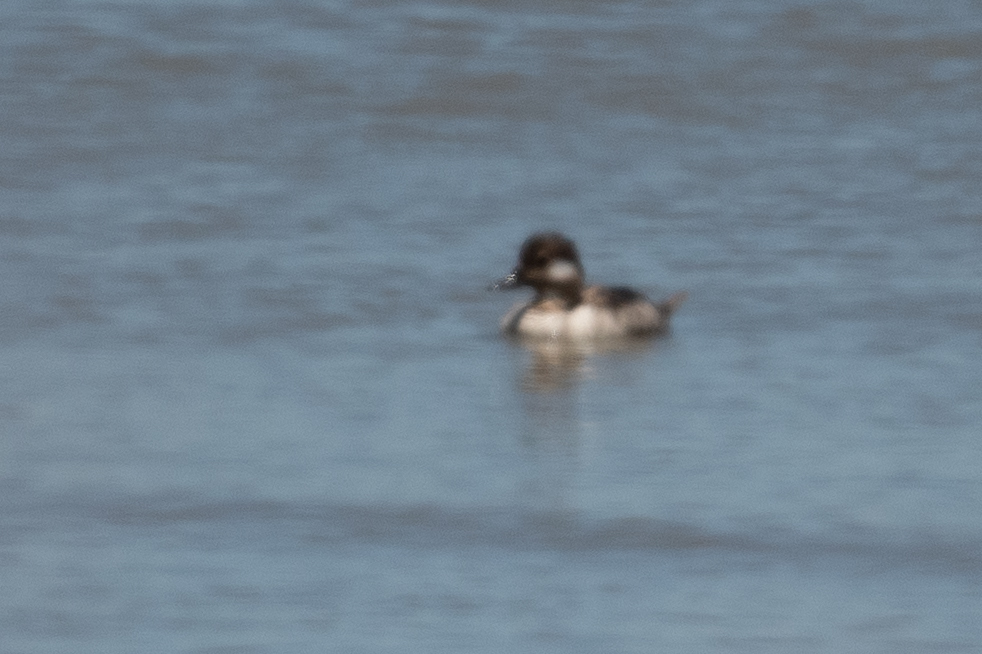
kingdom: Animalia
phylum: Chordata
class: Aves
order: Anseriformes
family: Anatidae
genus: Bucephala
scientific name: Bucephala albeola
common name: Bufflehead
